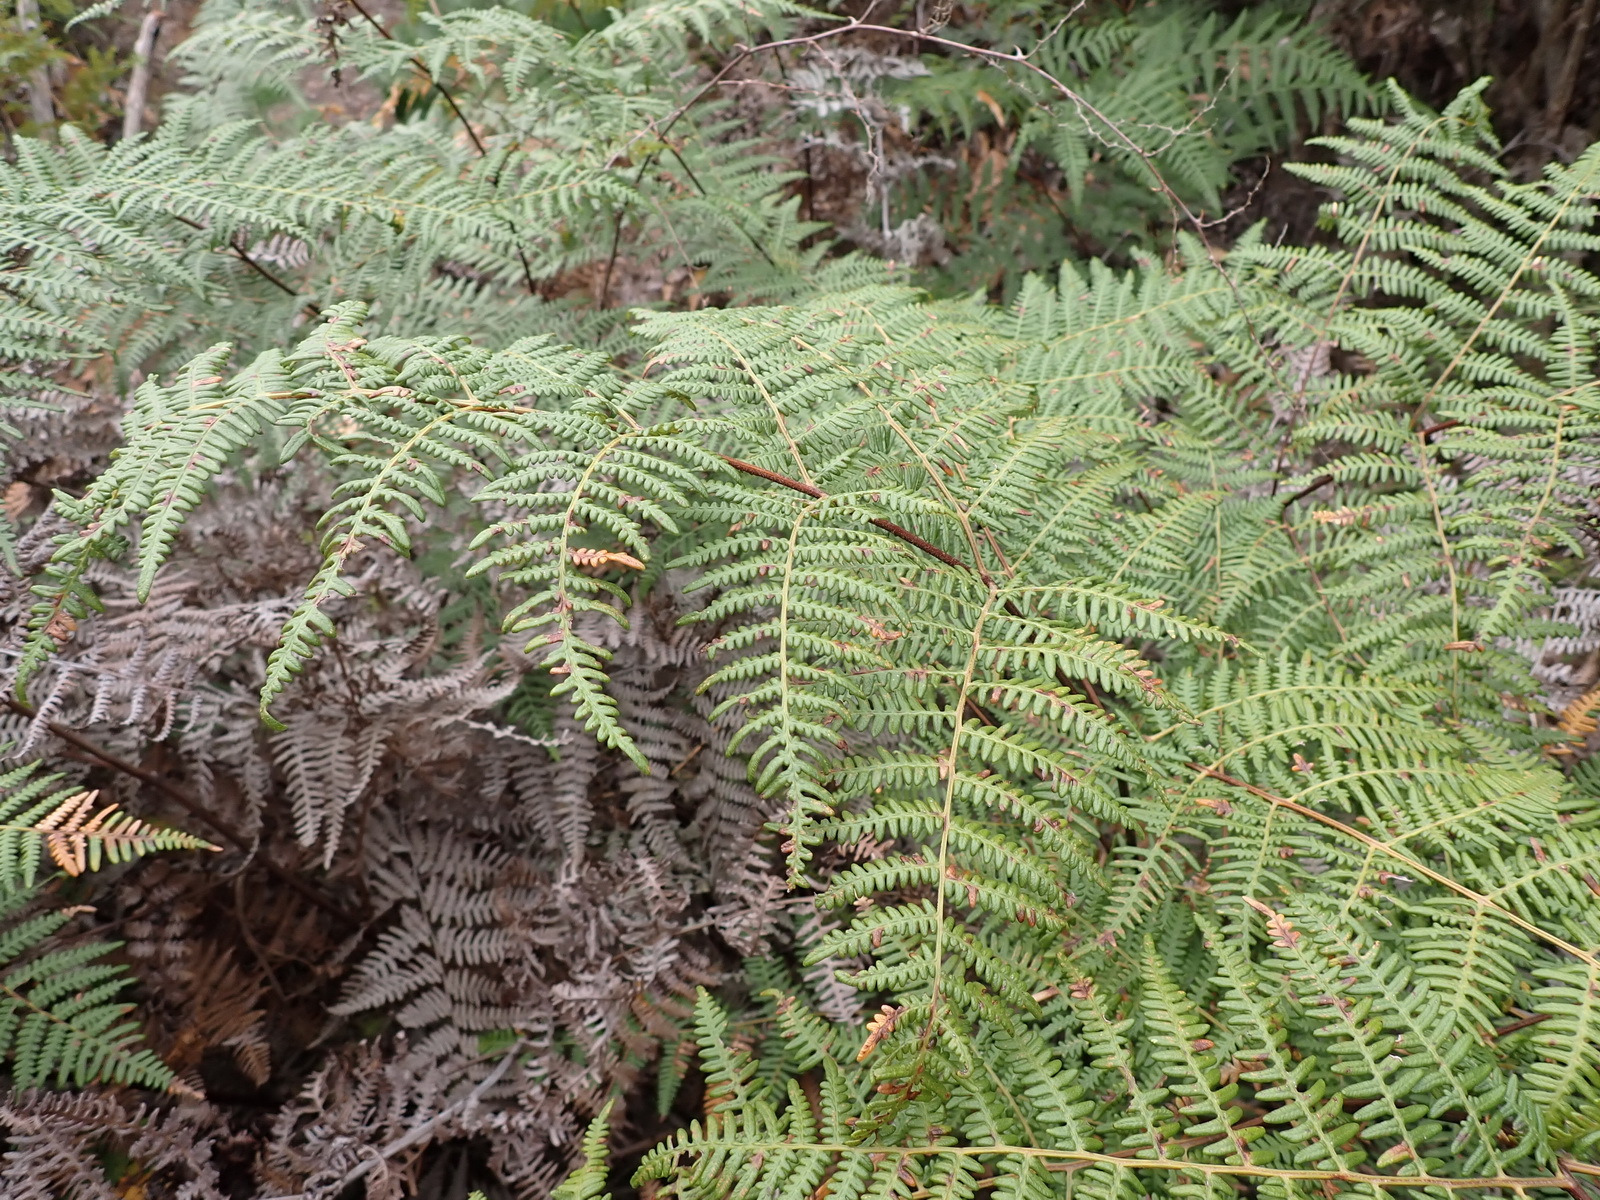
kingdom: Plantae
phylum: Tracheophyta
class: Polypodiopsida
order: Polypodiales
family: Dennstaedtiaceae
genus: Pteridium
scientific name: Pteridium aquilinum
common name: Bracken
